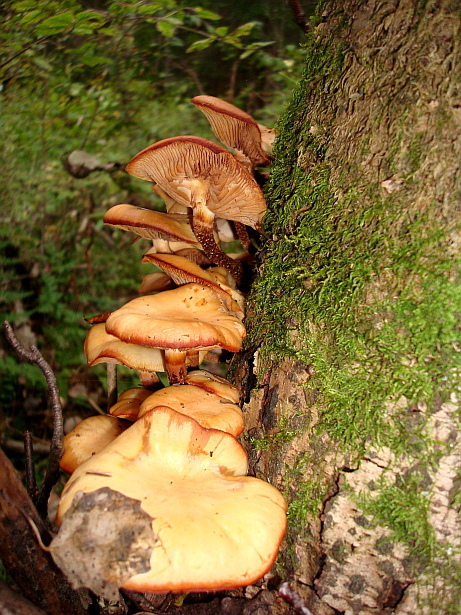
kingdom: Fungi
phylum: Basidiomycota
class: Agaricomycetes
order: Agaricales
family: Strophariaceae
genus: Kuehneromyces
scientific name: Kuehneromyces mutabilis
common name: Sheathed woodtuft
